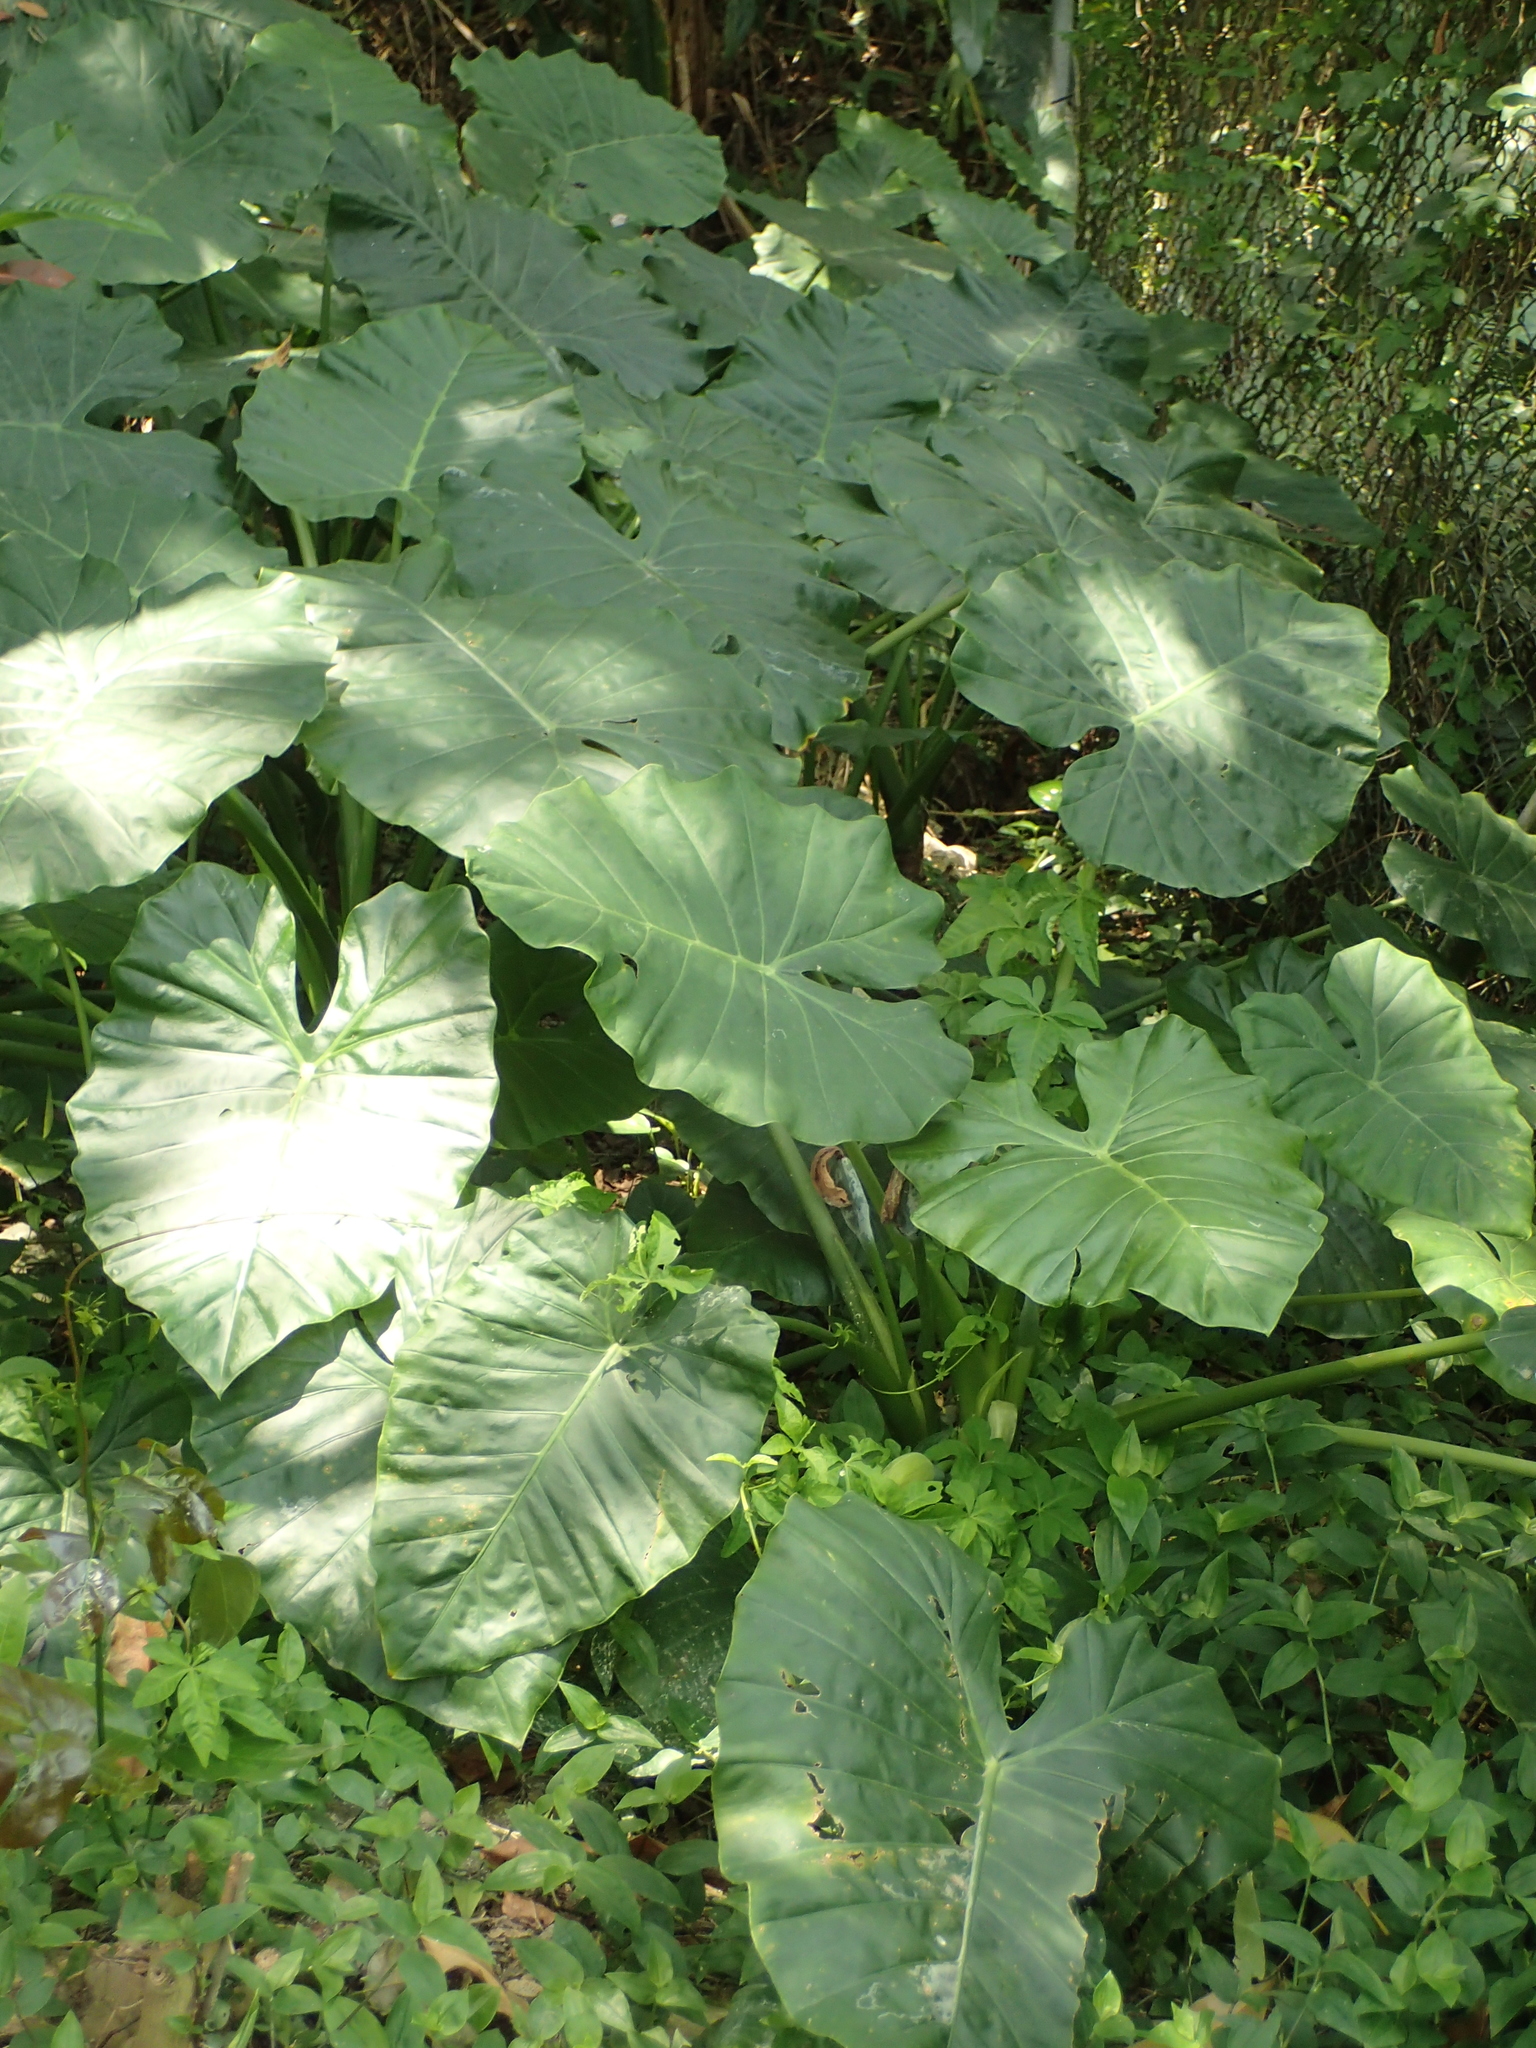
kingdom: Plantae
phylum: Tracheophyta
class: Liliopsida
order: Alismatales
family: Araceae
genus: Alocasia
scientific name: Alocasia odora
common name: Asian taro
